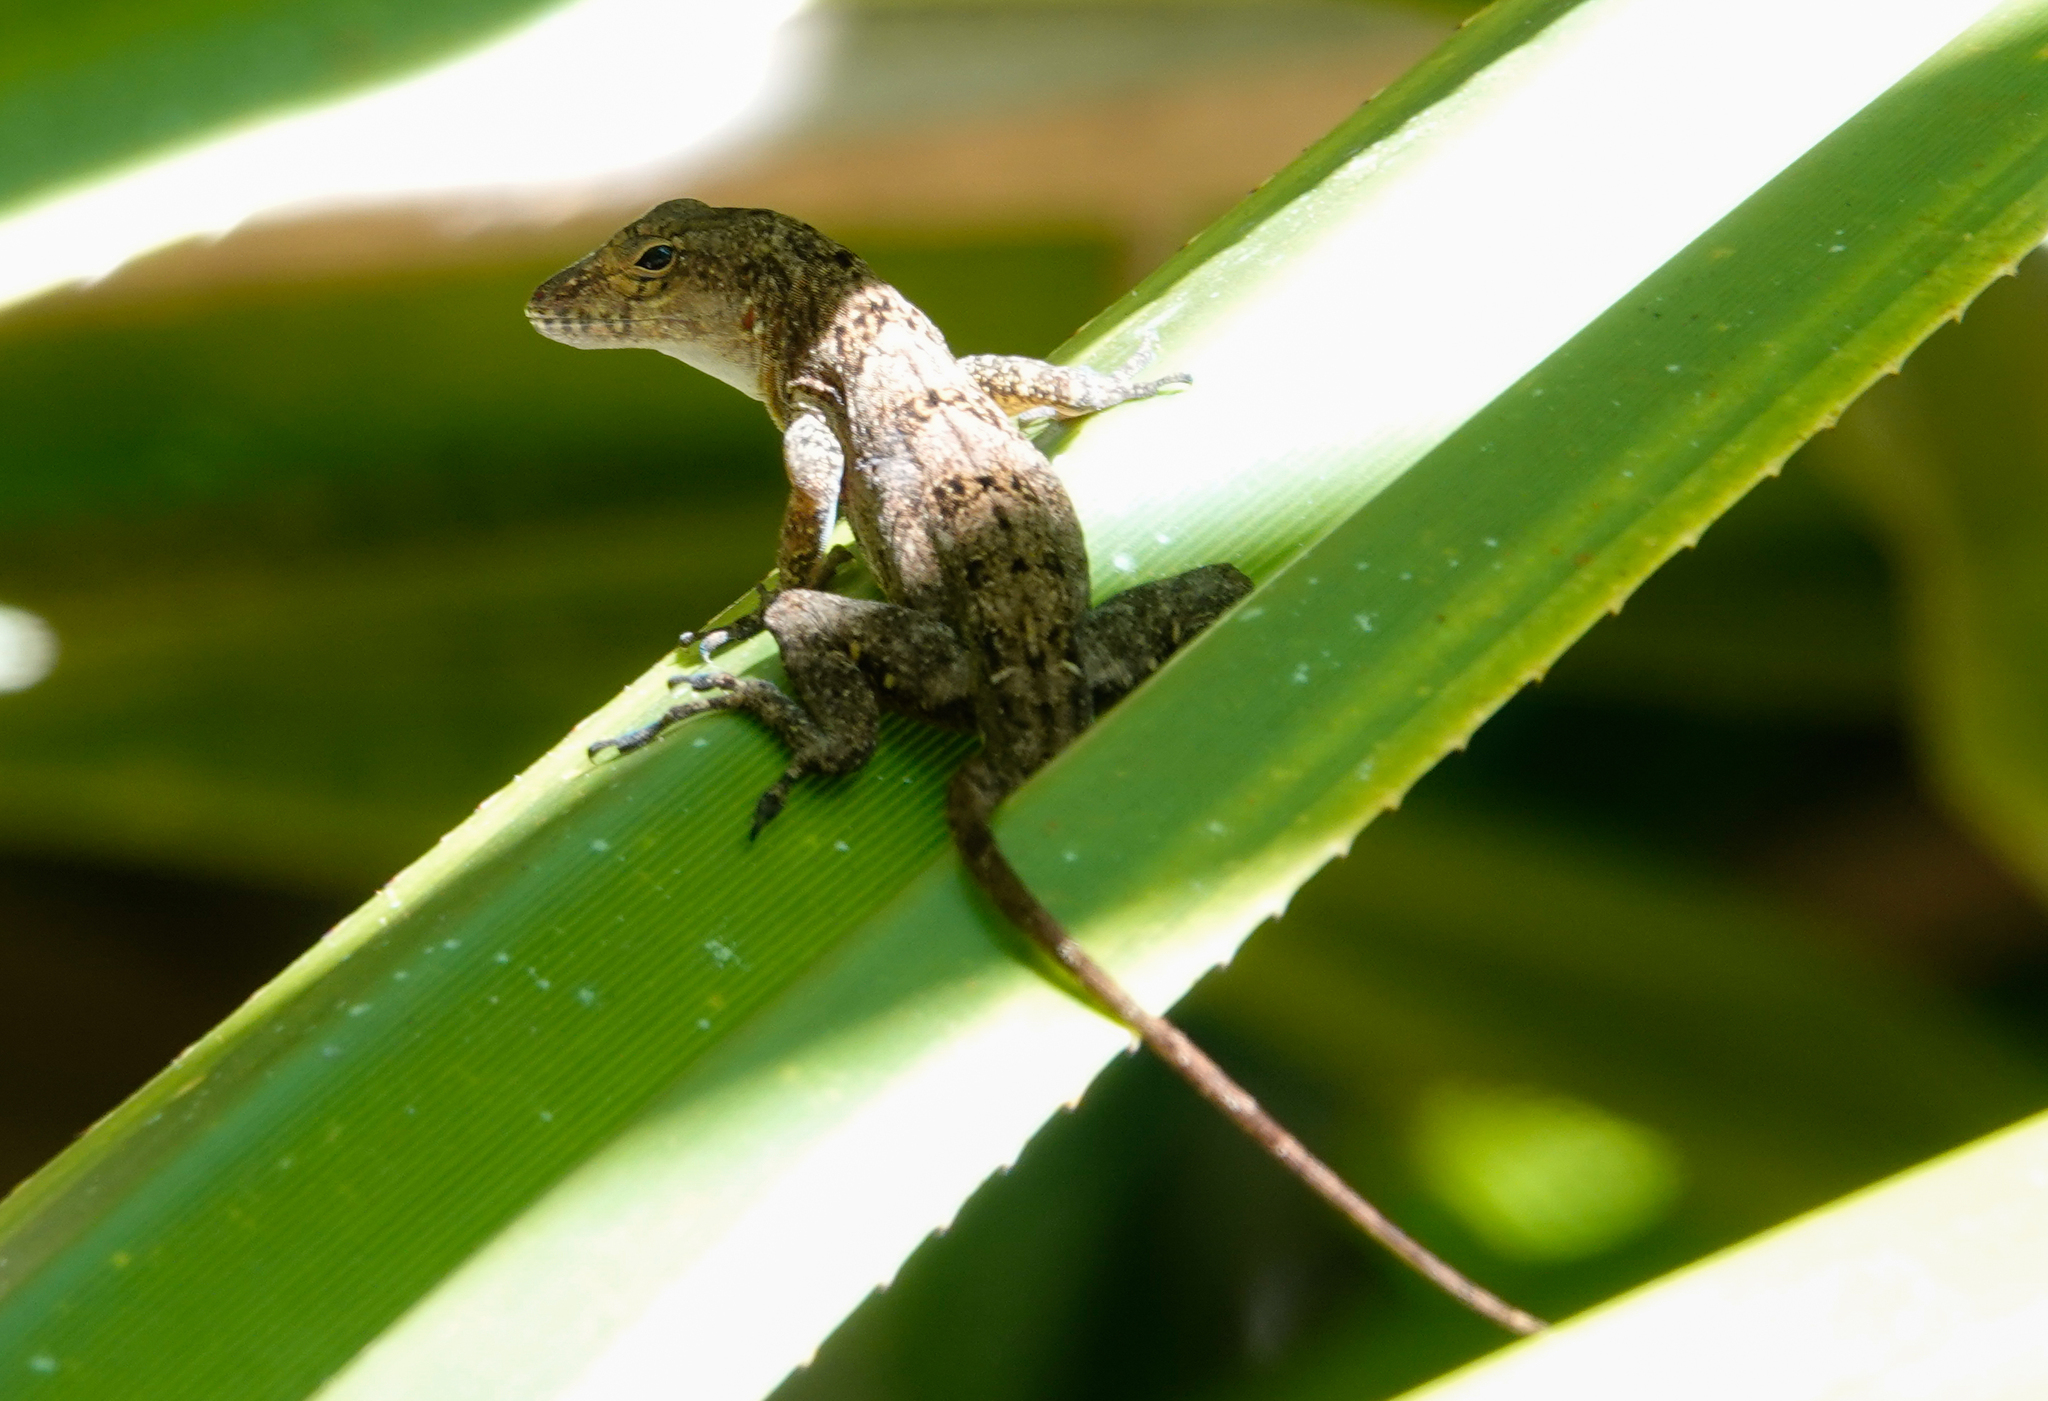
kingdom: Animalia
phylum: Chordata
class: Squamata
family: Dactyloidae
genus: Anolis
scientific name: Anolis cristatellus
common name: Crested anole
